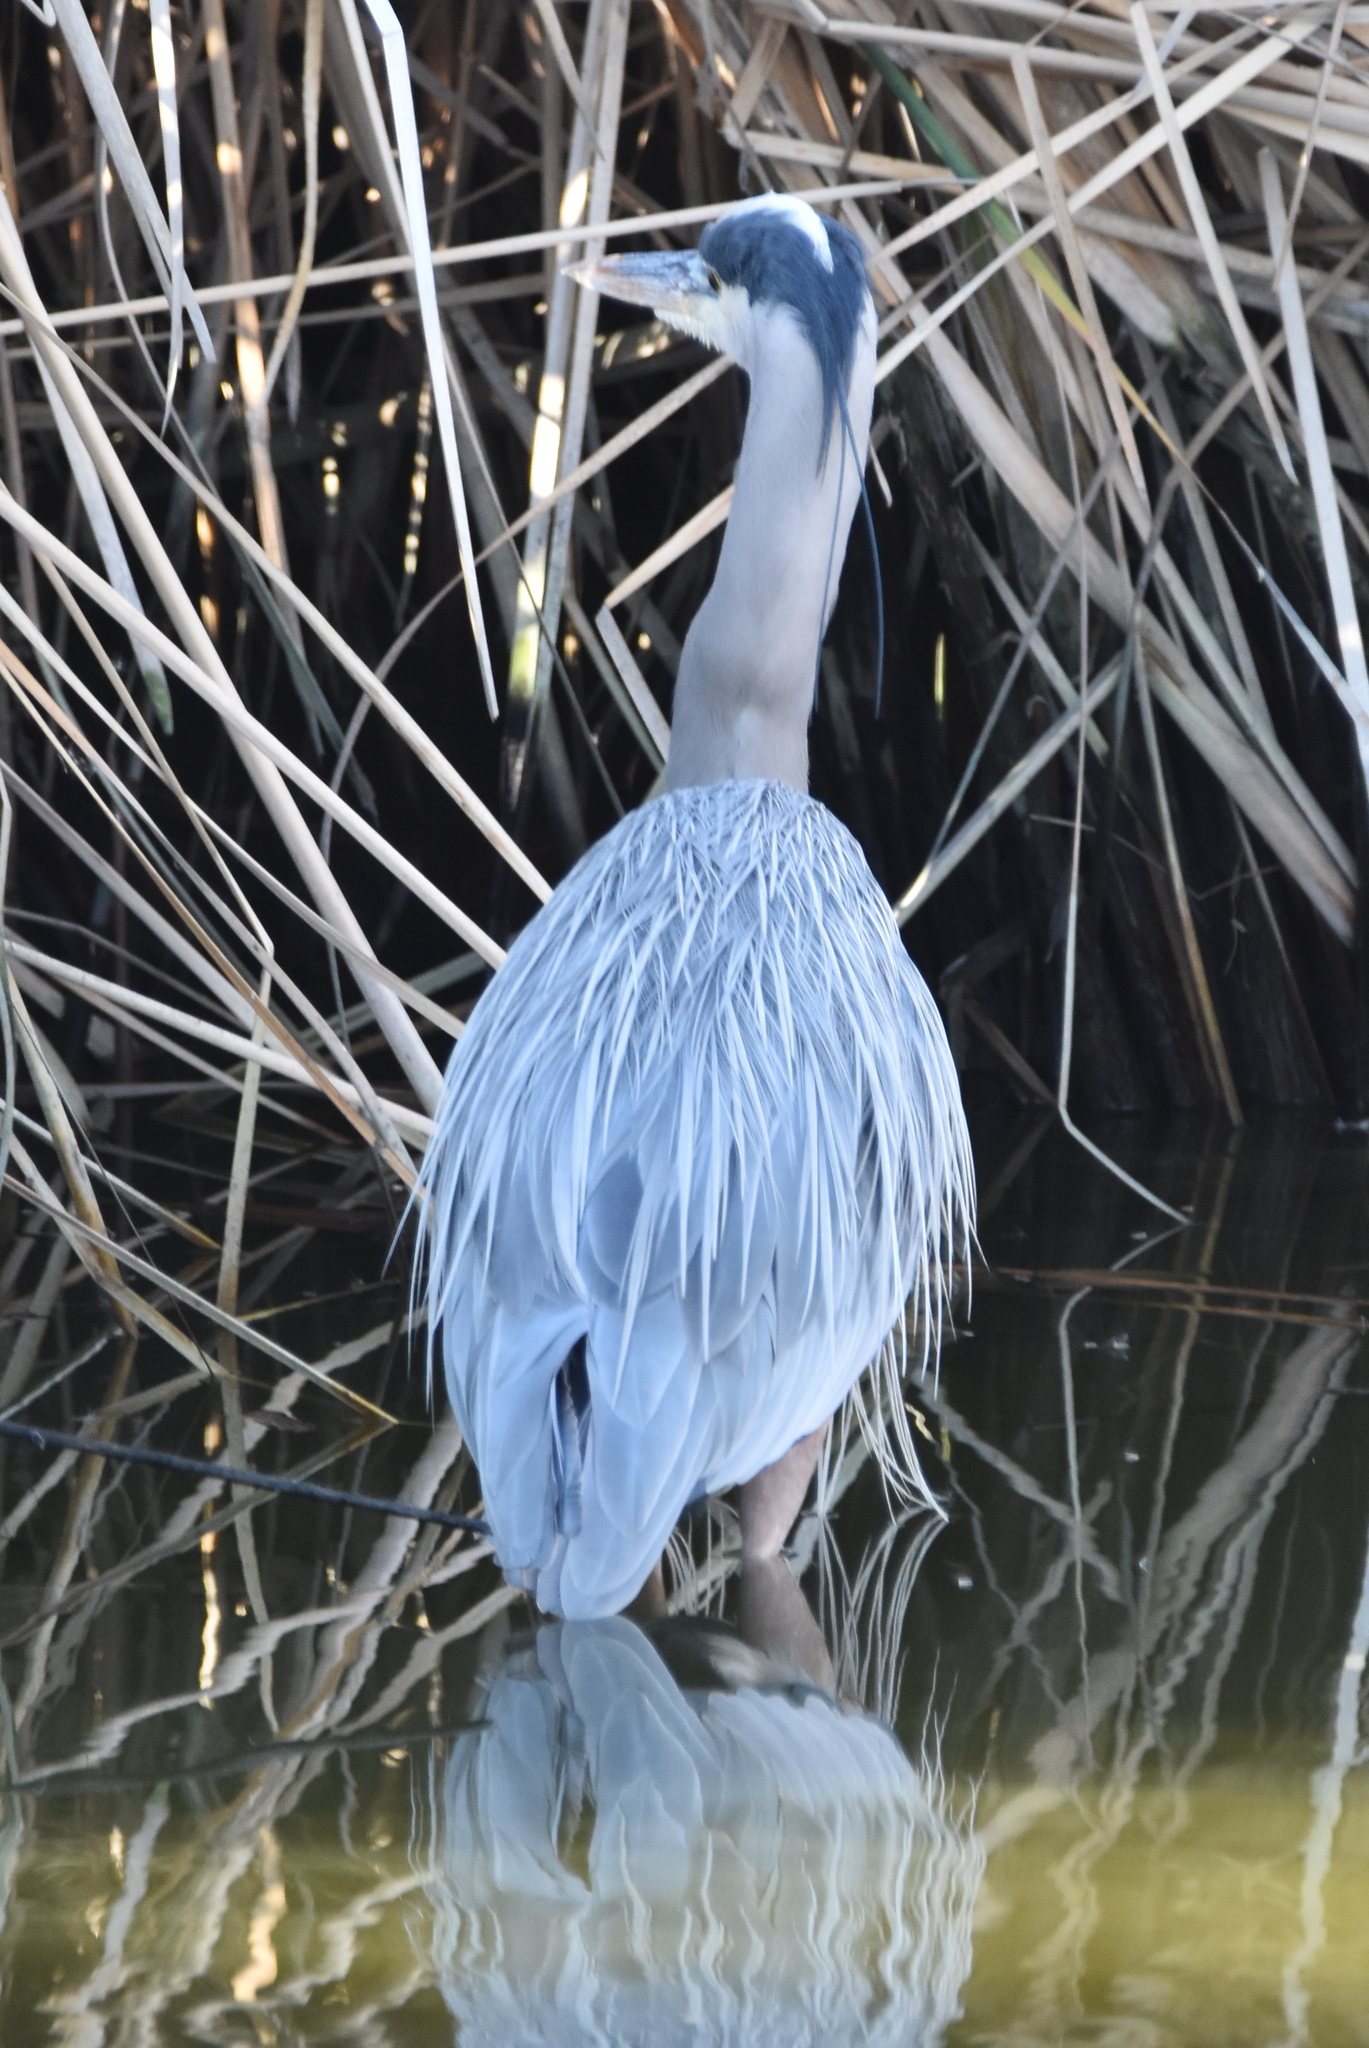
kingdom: Animalia
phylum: Chordata
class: Aves
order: Pelecaniformes
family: Ardeidae
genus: Ardea
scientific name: Ardea herodias
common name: Great blue heron
